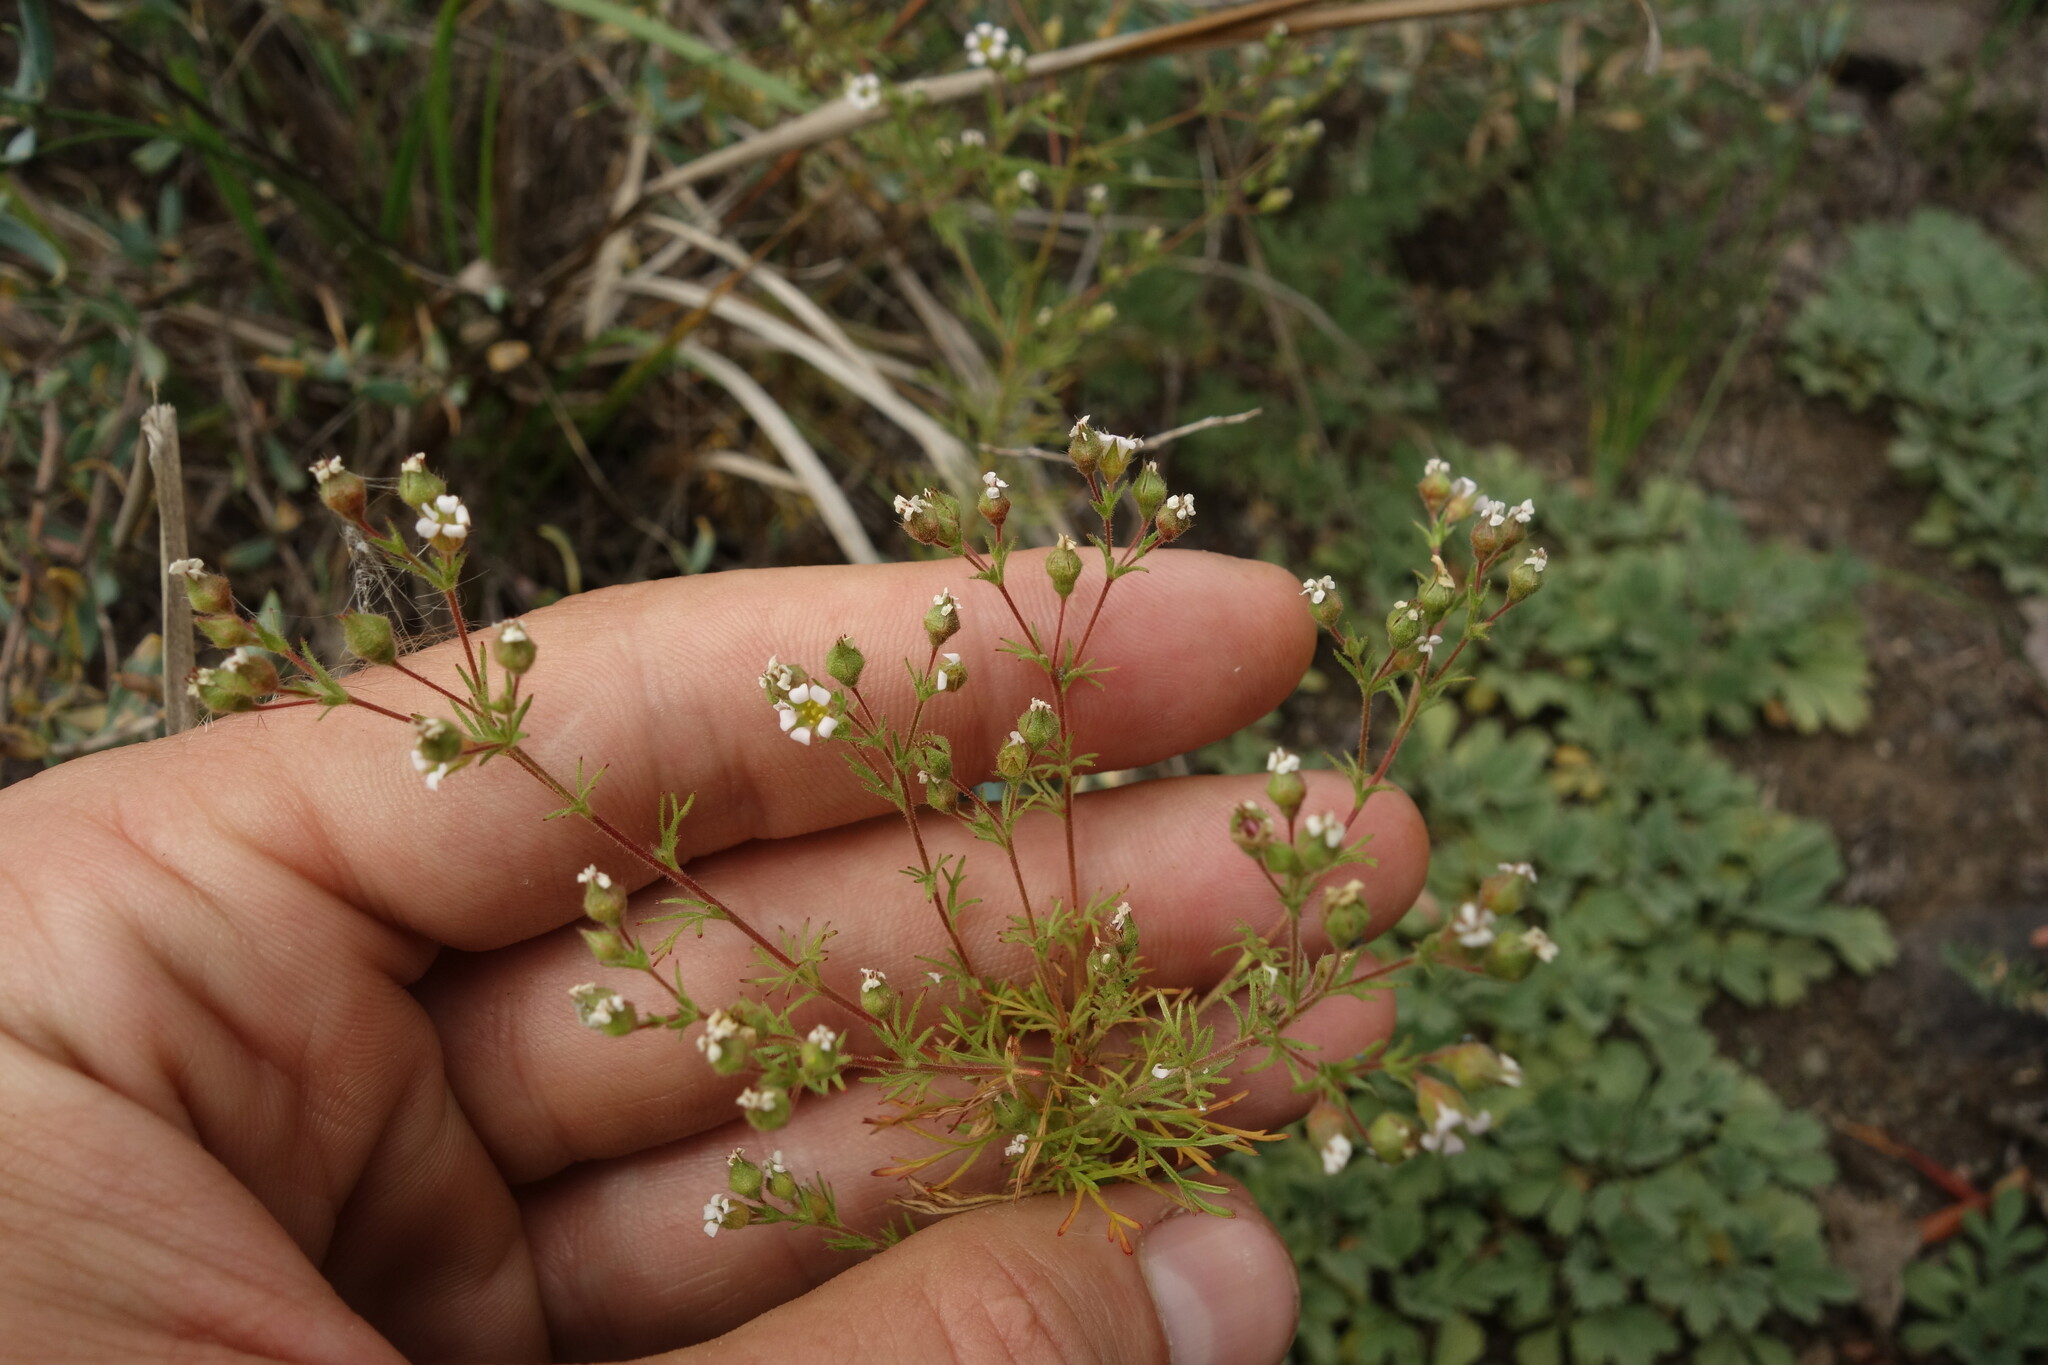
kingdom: Plantae
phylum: Tracheophyta
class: Magnoliopsida
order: Rosales
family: Rosaceae
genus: Chamaerhodos
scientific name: Chamaerhodos erecta
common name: American chamaerhodos
